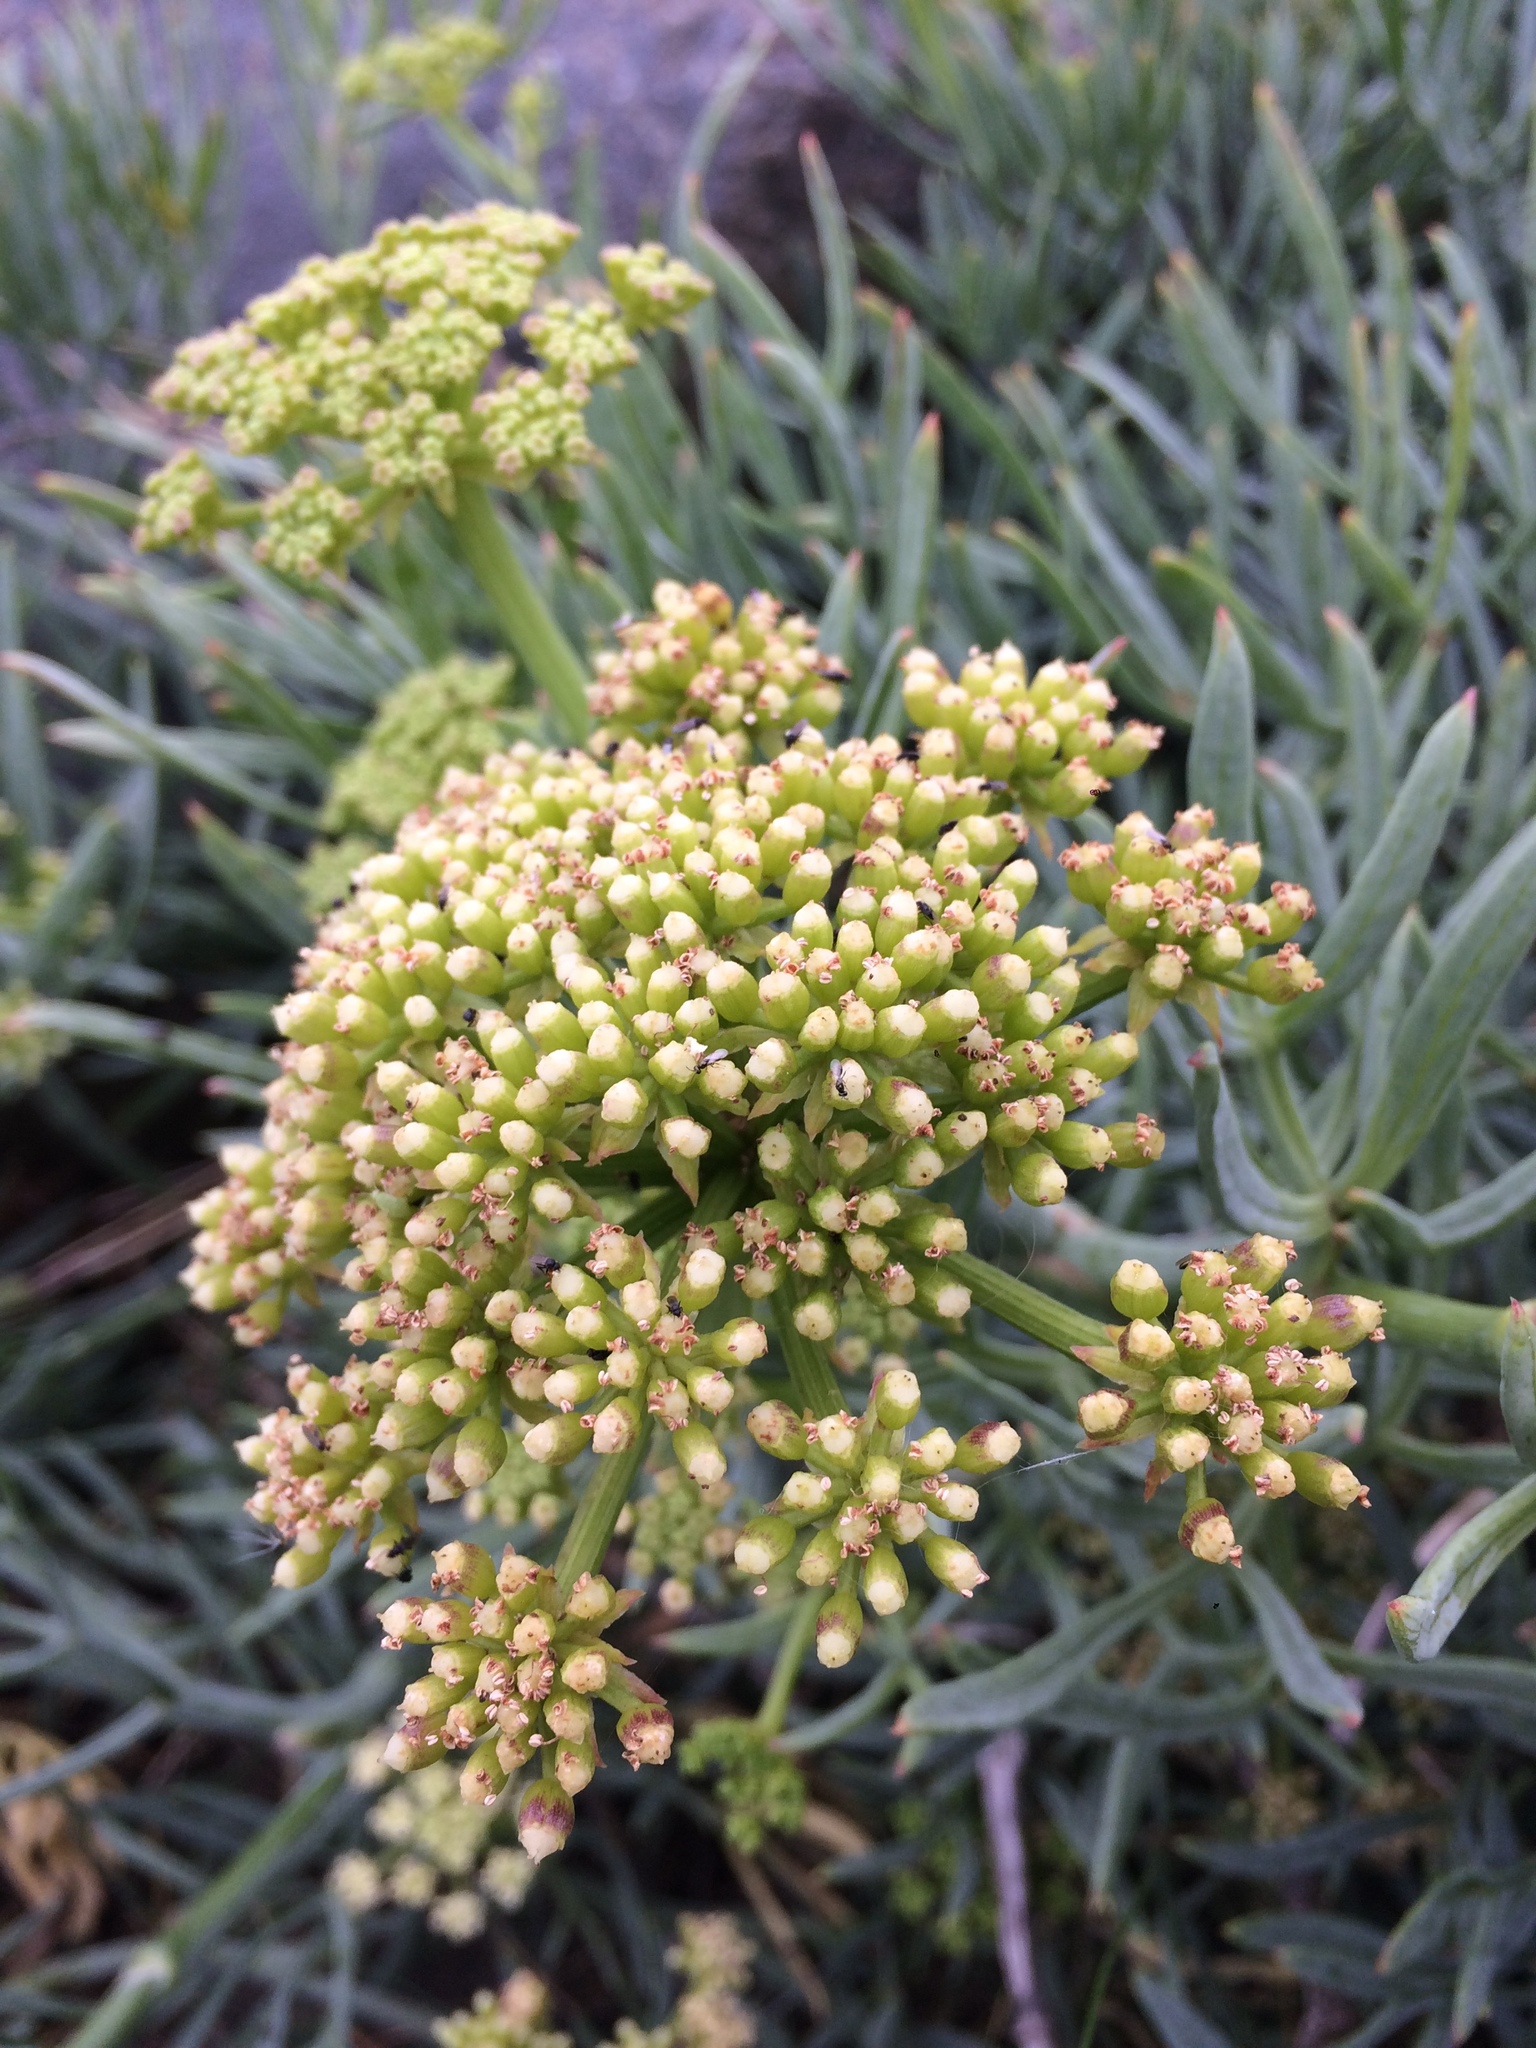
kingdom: Plantae
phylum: Tracheophyta
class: Magnoliopsida
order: Apiales
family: Apiaceae
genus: Crithmum
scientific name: Crithmum maritimum
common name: Rock samphire
